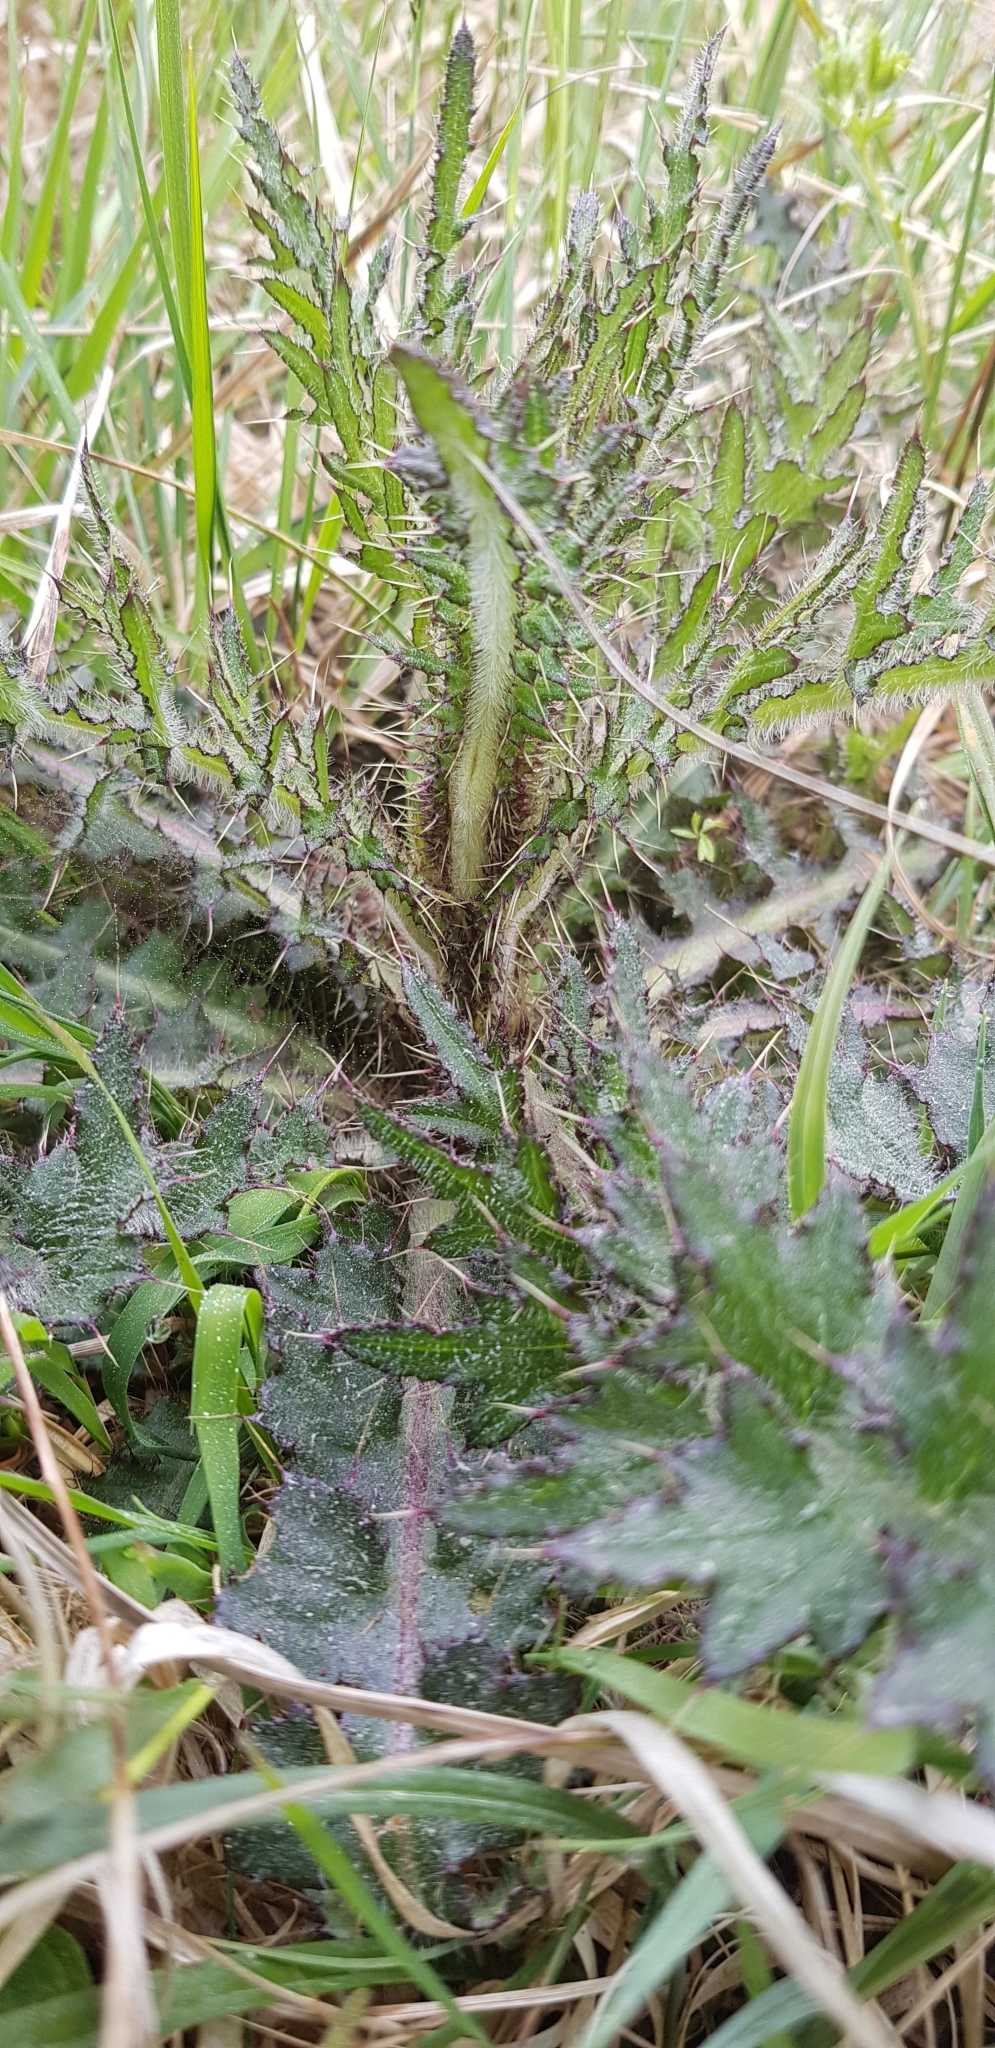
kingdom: Plantae
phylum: Tracheophyta
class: Magnoliopsida
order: Asterales
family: Asteraceae
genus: Cirsium
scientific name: Cirsium palustre
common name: Marsh thistle
